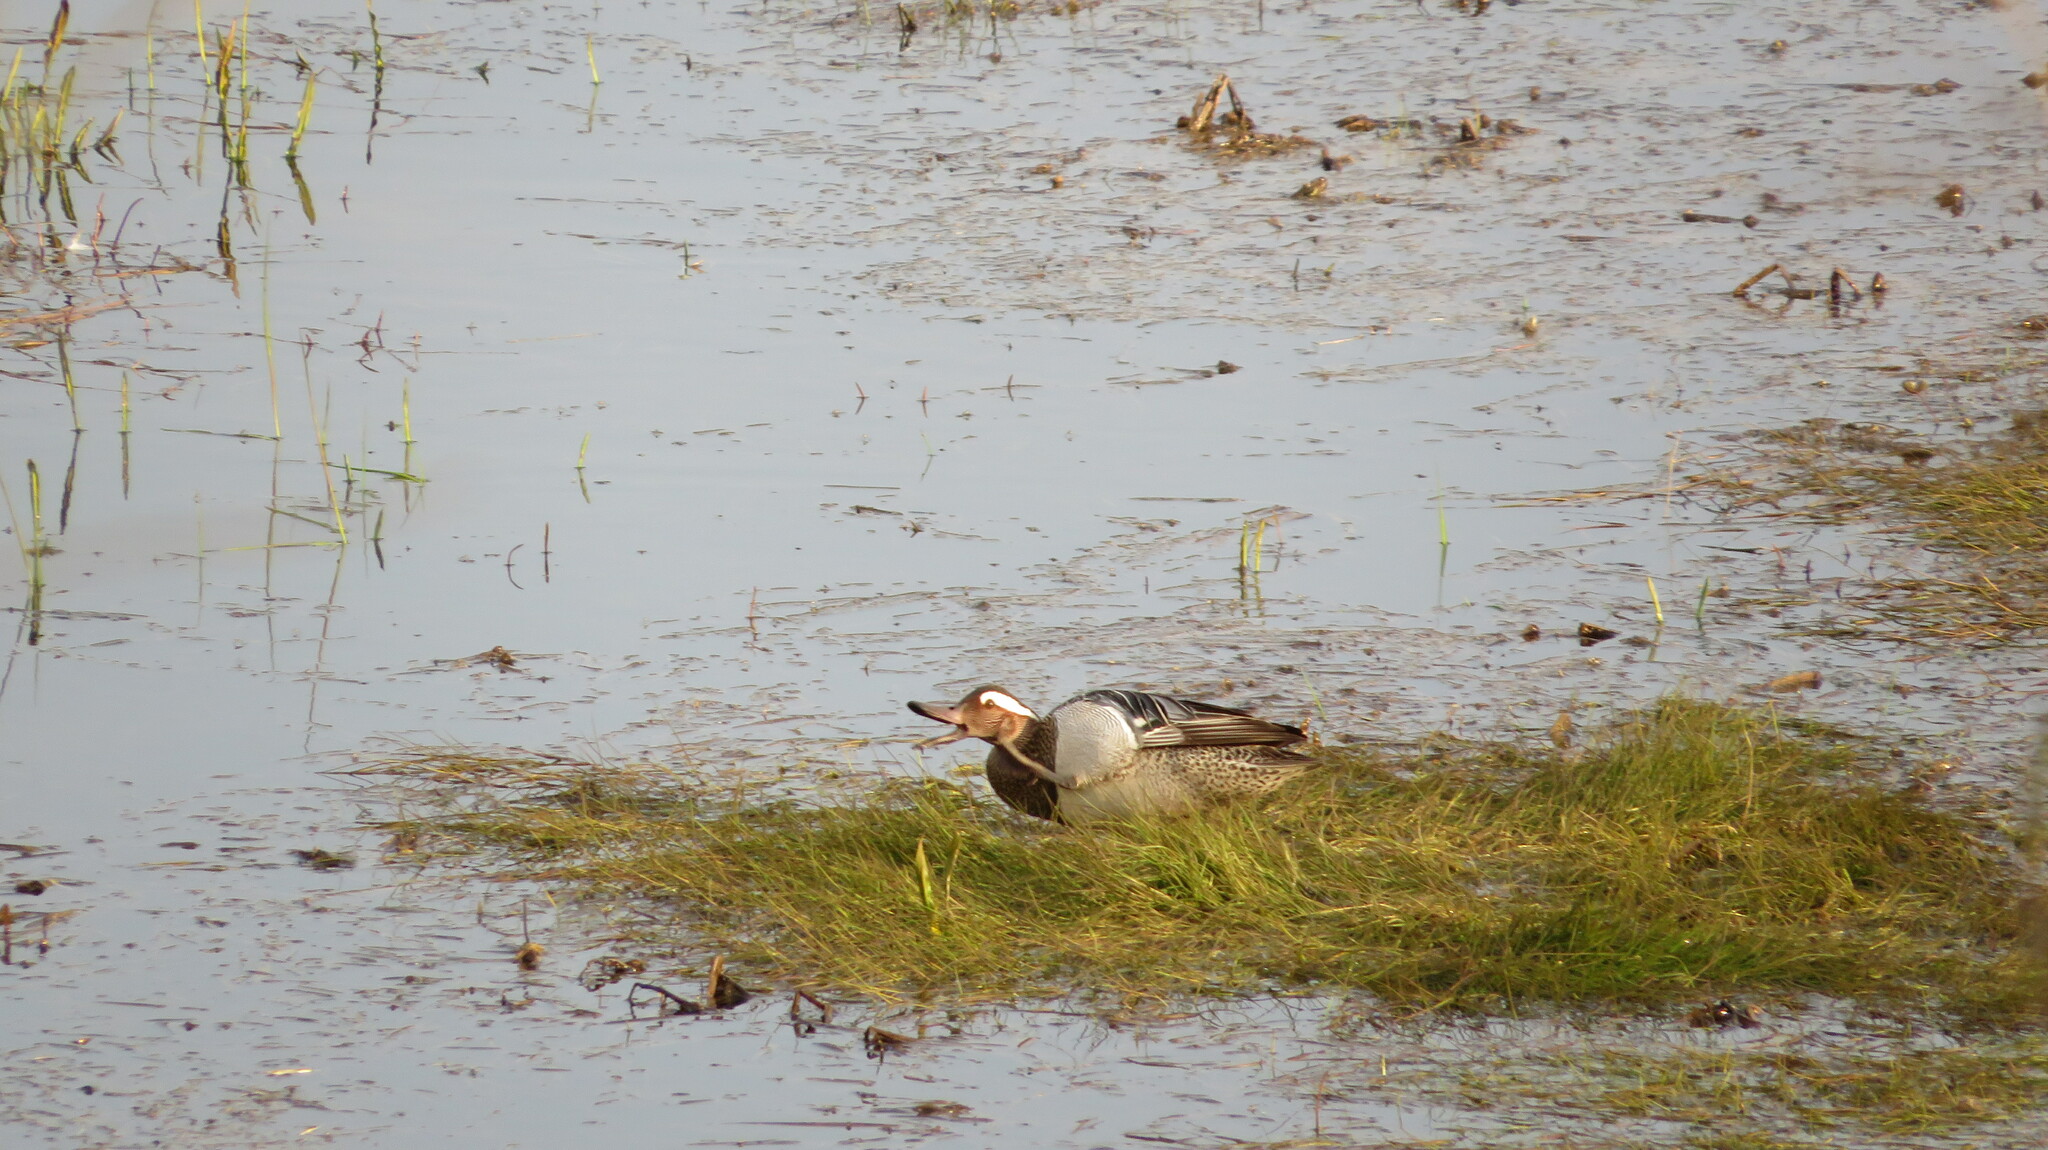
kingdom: Animalia
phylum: Chordata
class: Aves
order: Anseriformes
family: Anatidae
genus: Spatula
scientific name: Spatula querquedula
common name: Garganey
